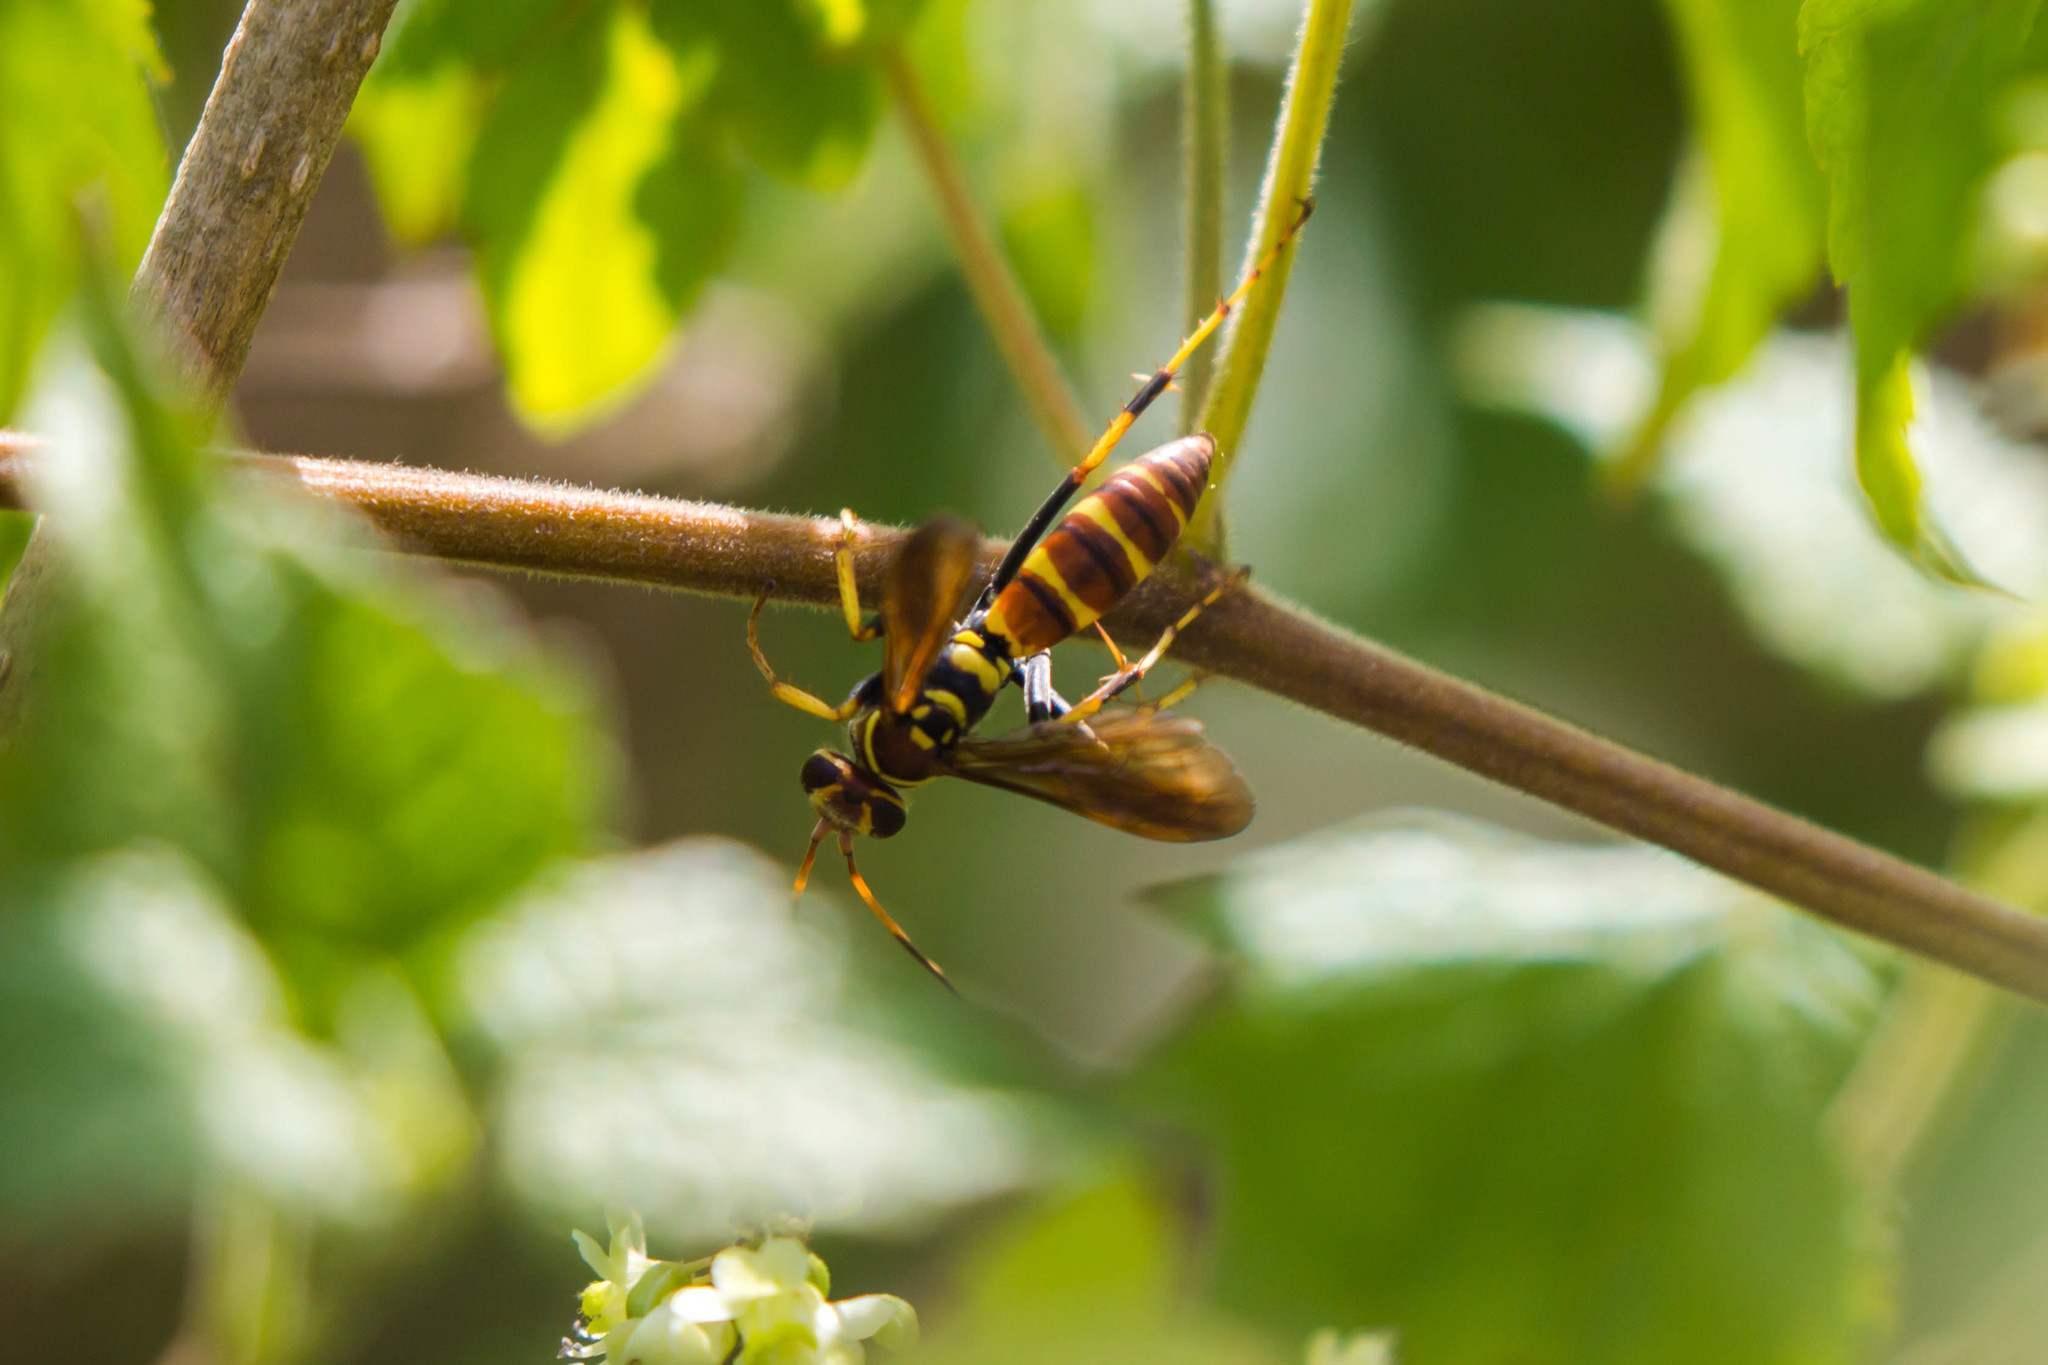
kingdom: Animalia
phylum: Arthropoda
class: Insecta
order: Hymenoptera
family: Pompilidae
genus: Poecilopompilus
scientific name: Poecilopompilus interruptus
